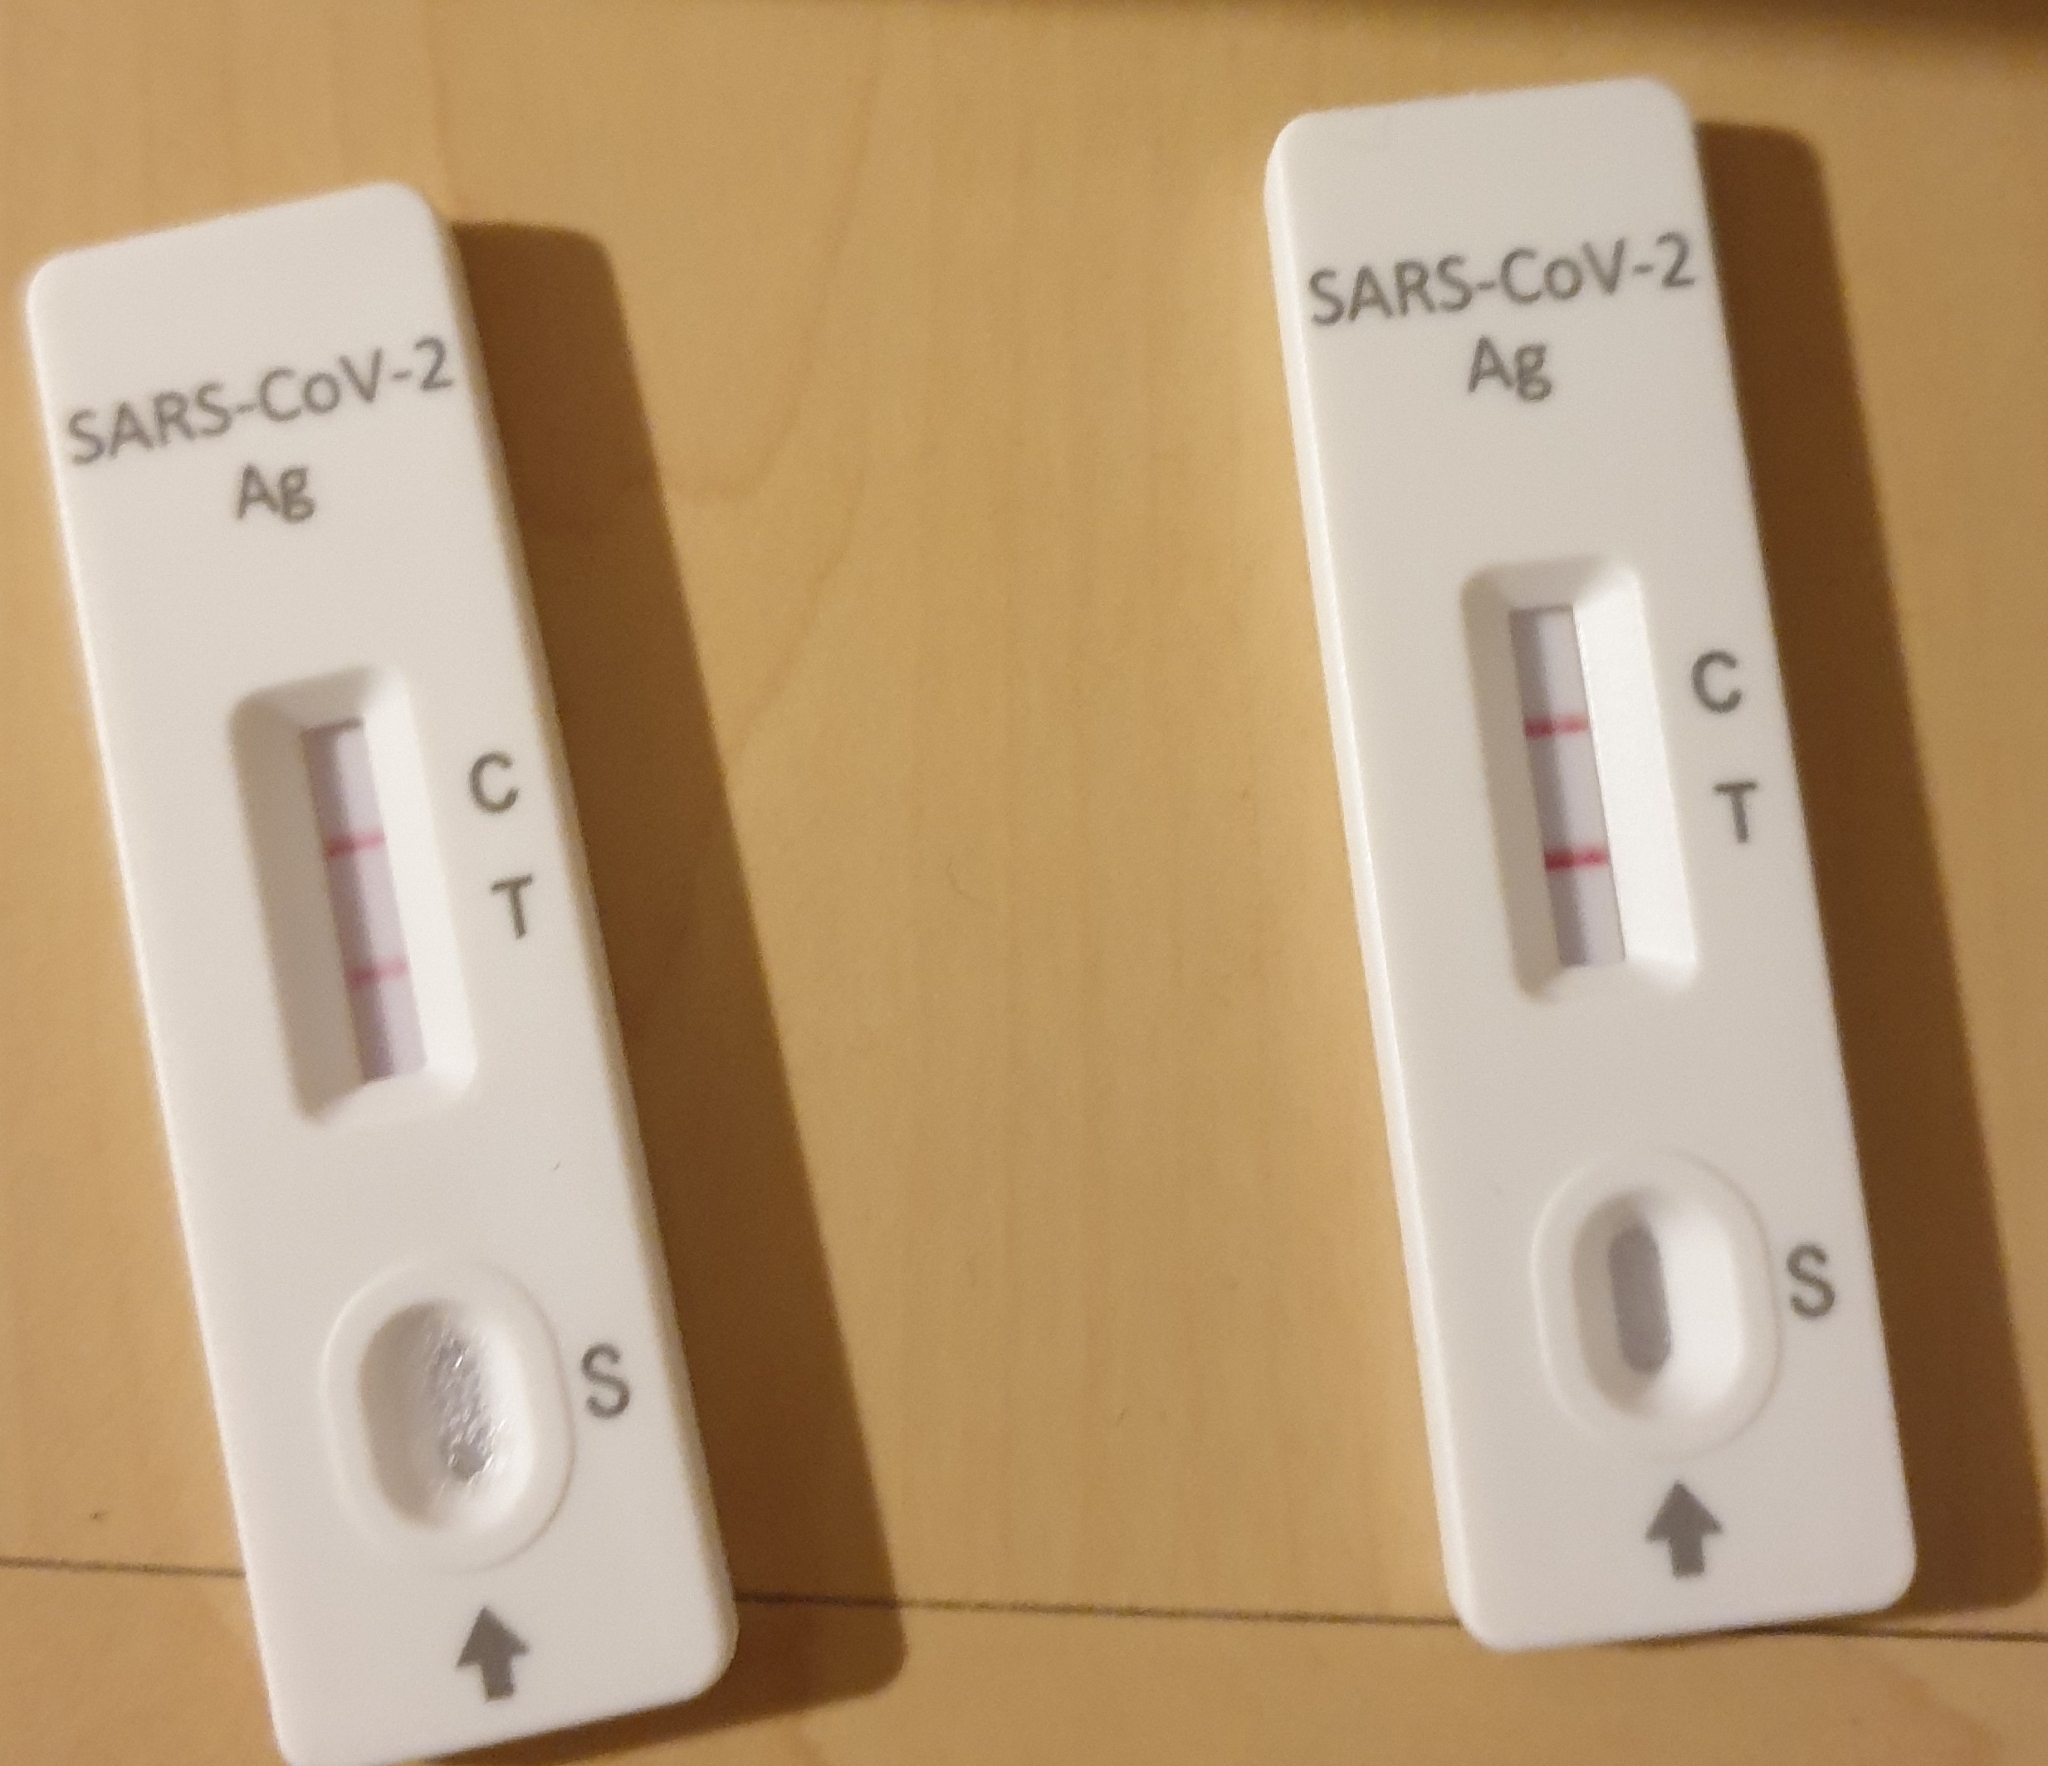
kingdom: Viruses
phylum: Pisuviricota
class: Pisoniviricetes
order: Nidovirales
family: Coronaviridae
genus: Betacoronavirus
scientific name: Betacoronavirus
